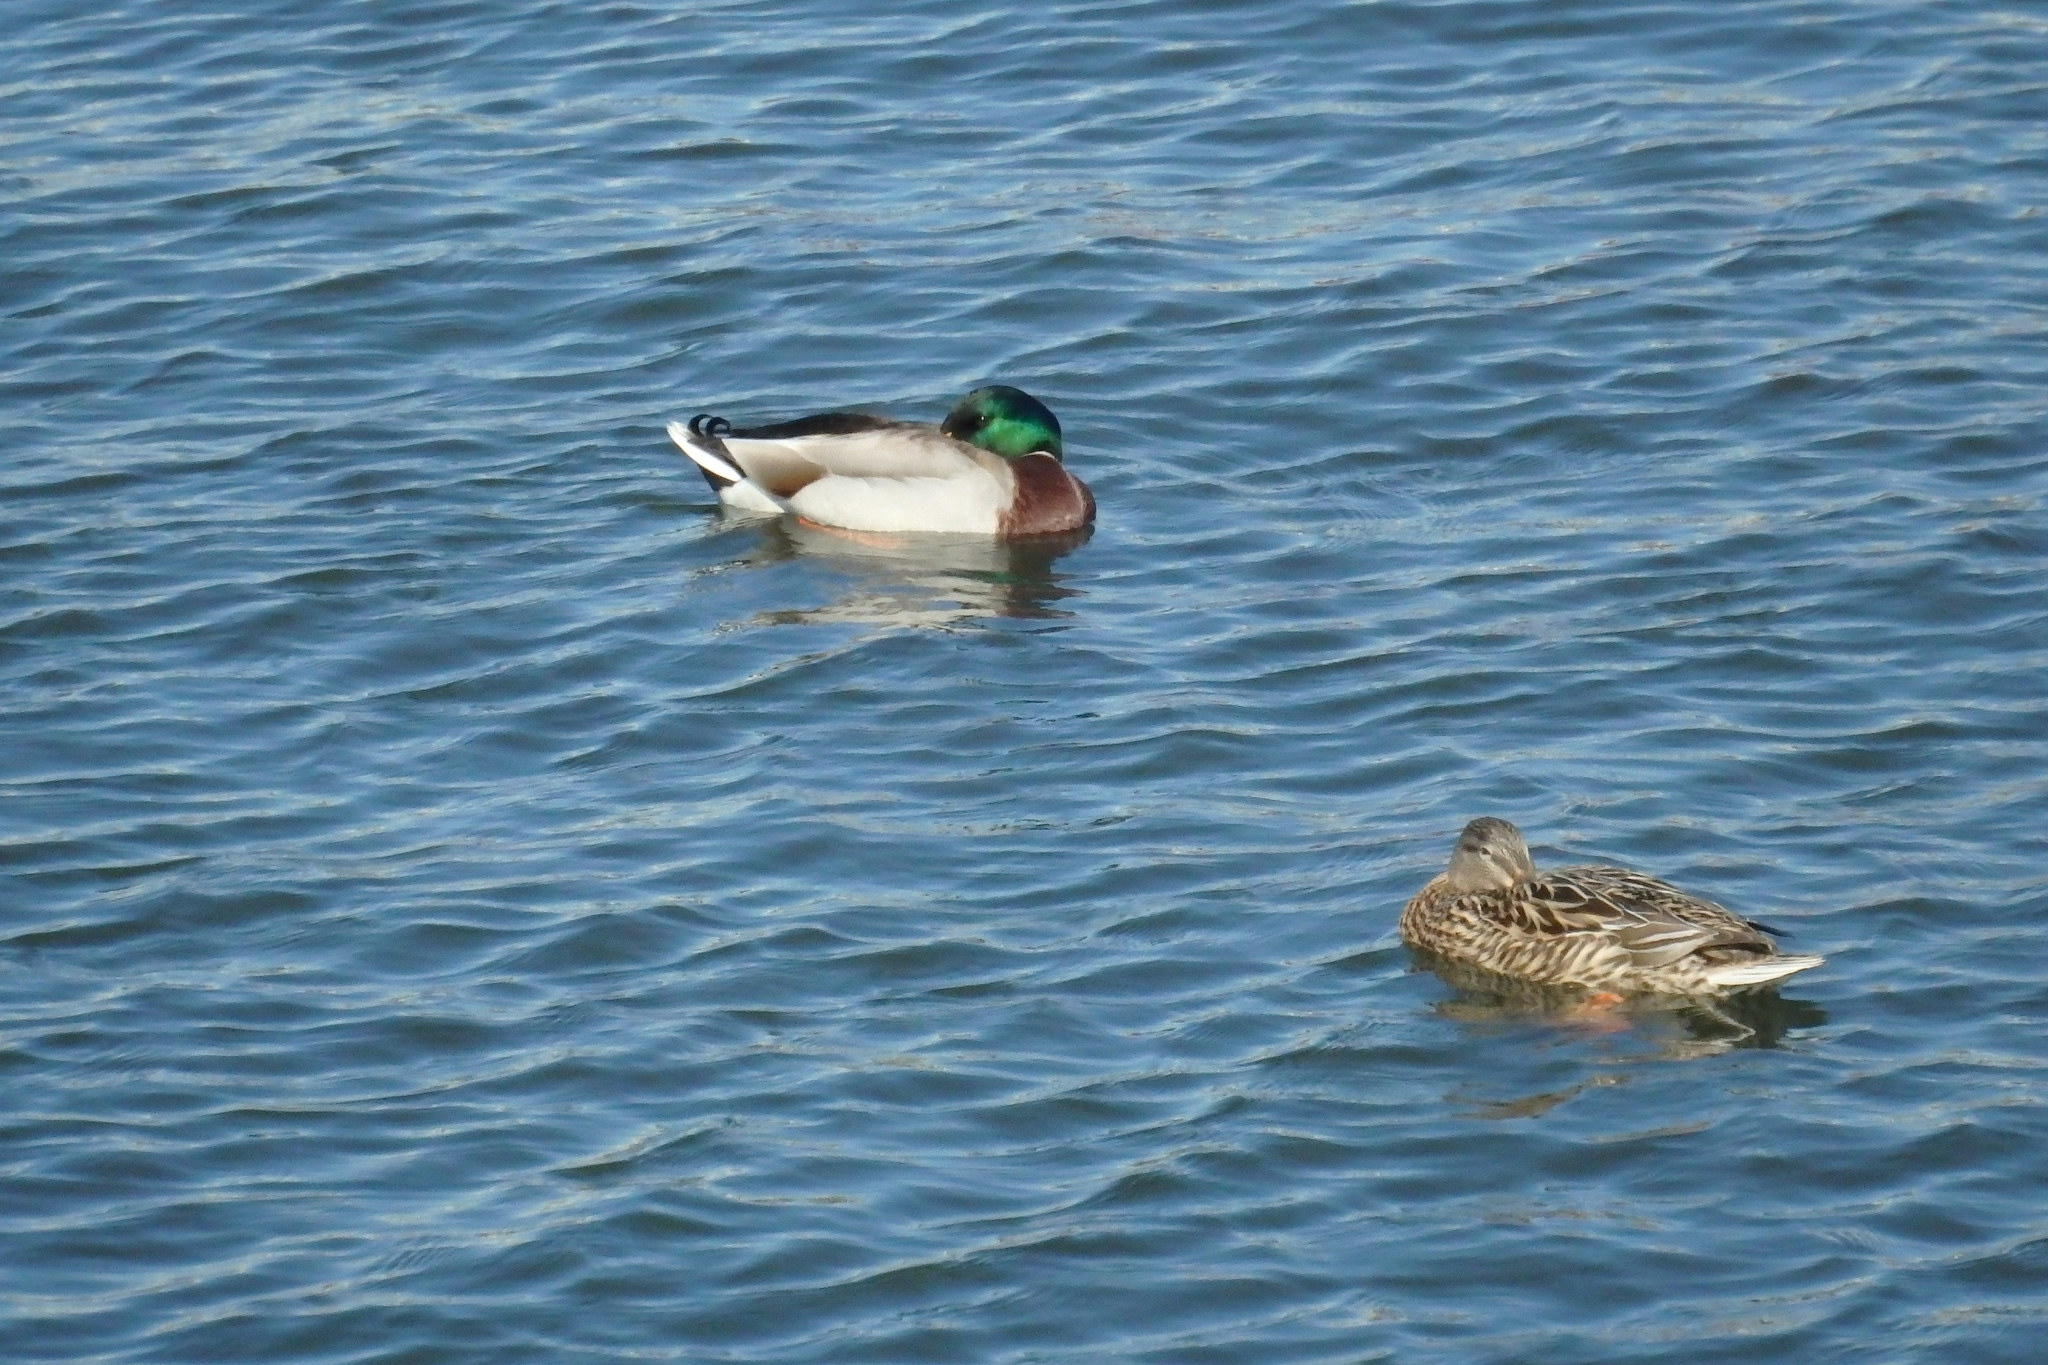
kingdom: Animalia
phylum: Chordata
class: Aves
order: Anseriformes
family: Anatidae
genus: Anas
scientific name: Anas platyrhynchos
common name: Mallard
